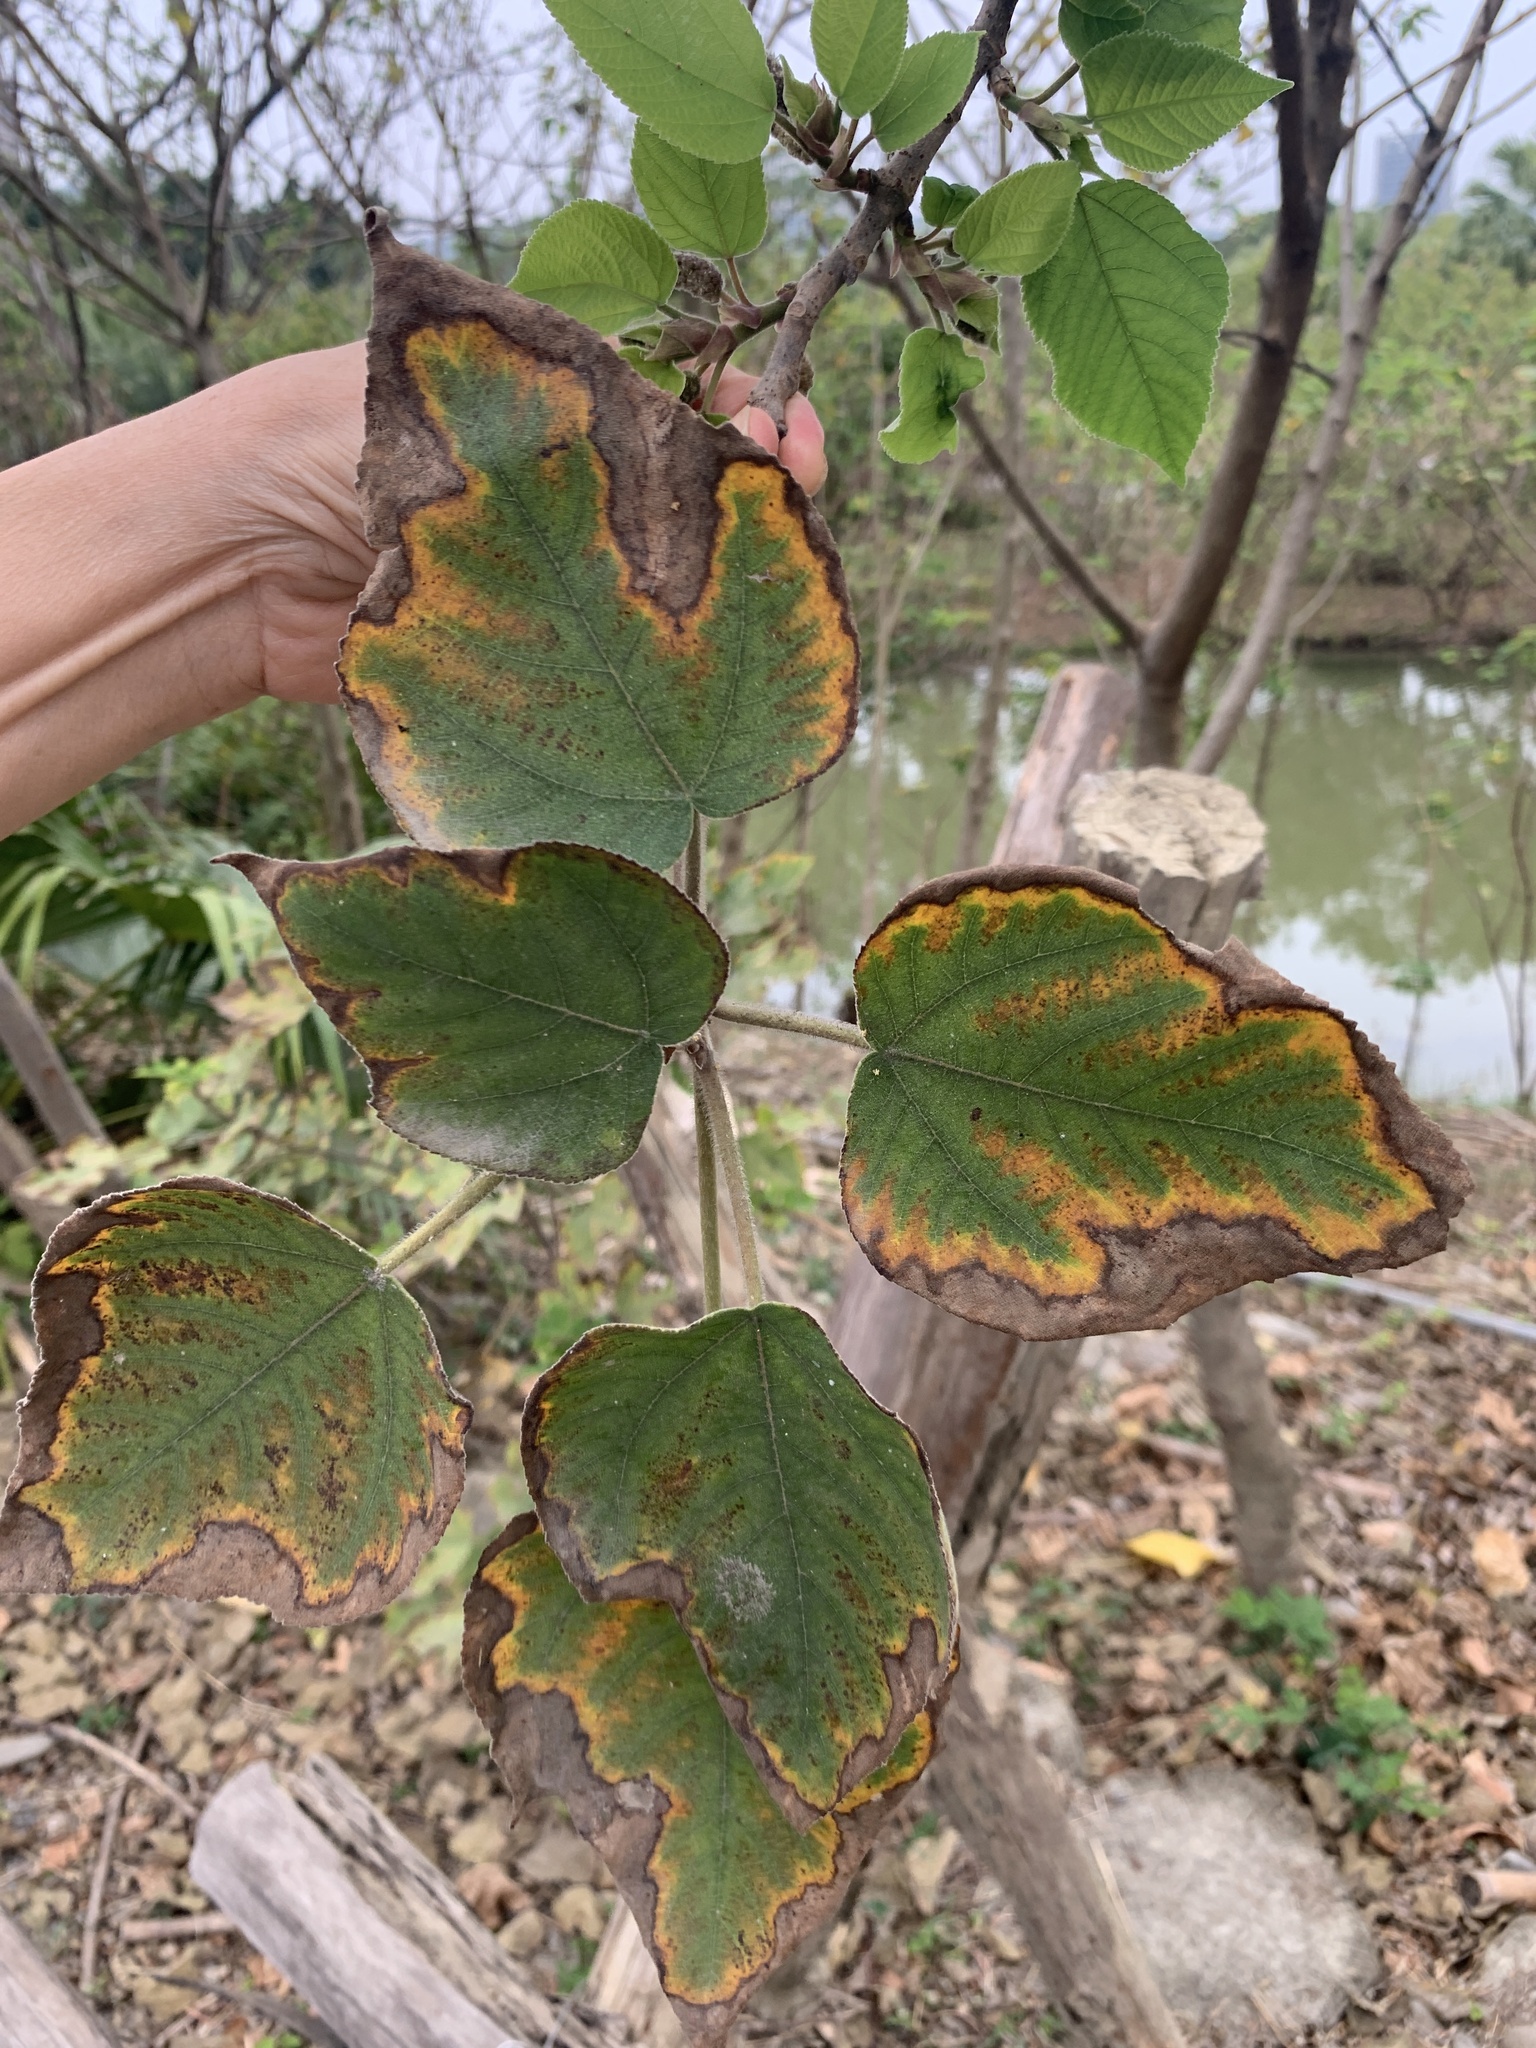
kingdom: Plantae
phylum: Tracheophyta
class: Magnoliopsida
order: Rosales
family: Moraceae
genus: Broussonetia
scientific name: Broussonetia papyrifera
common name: Paper mulberry
